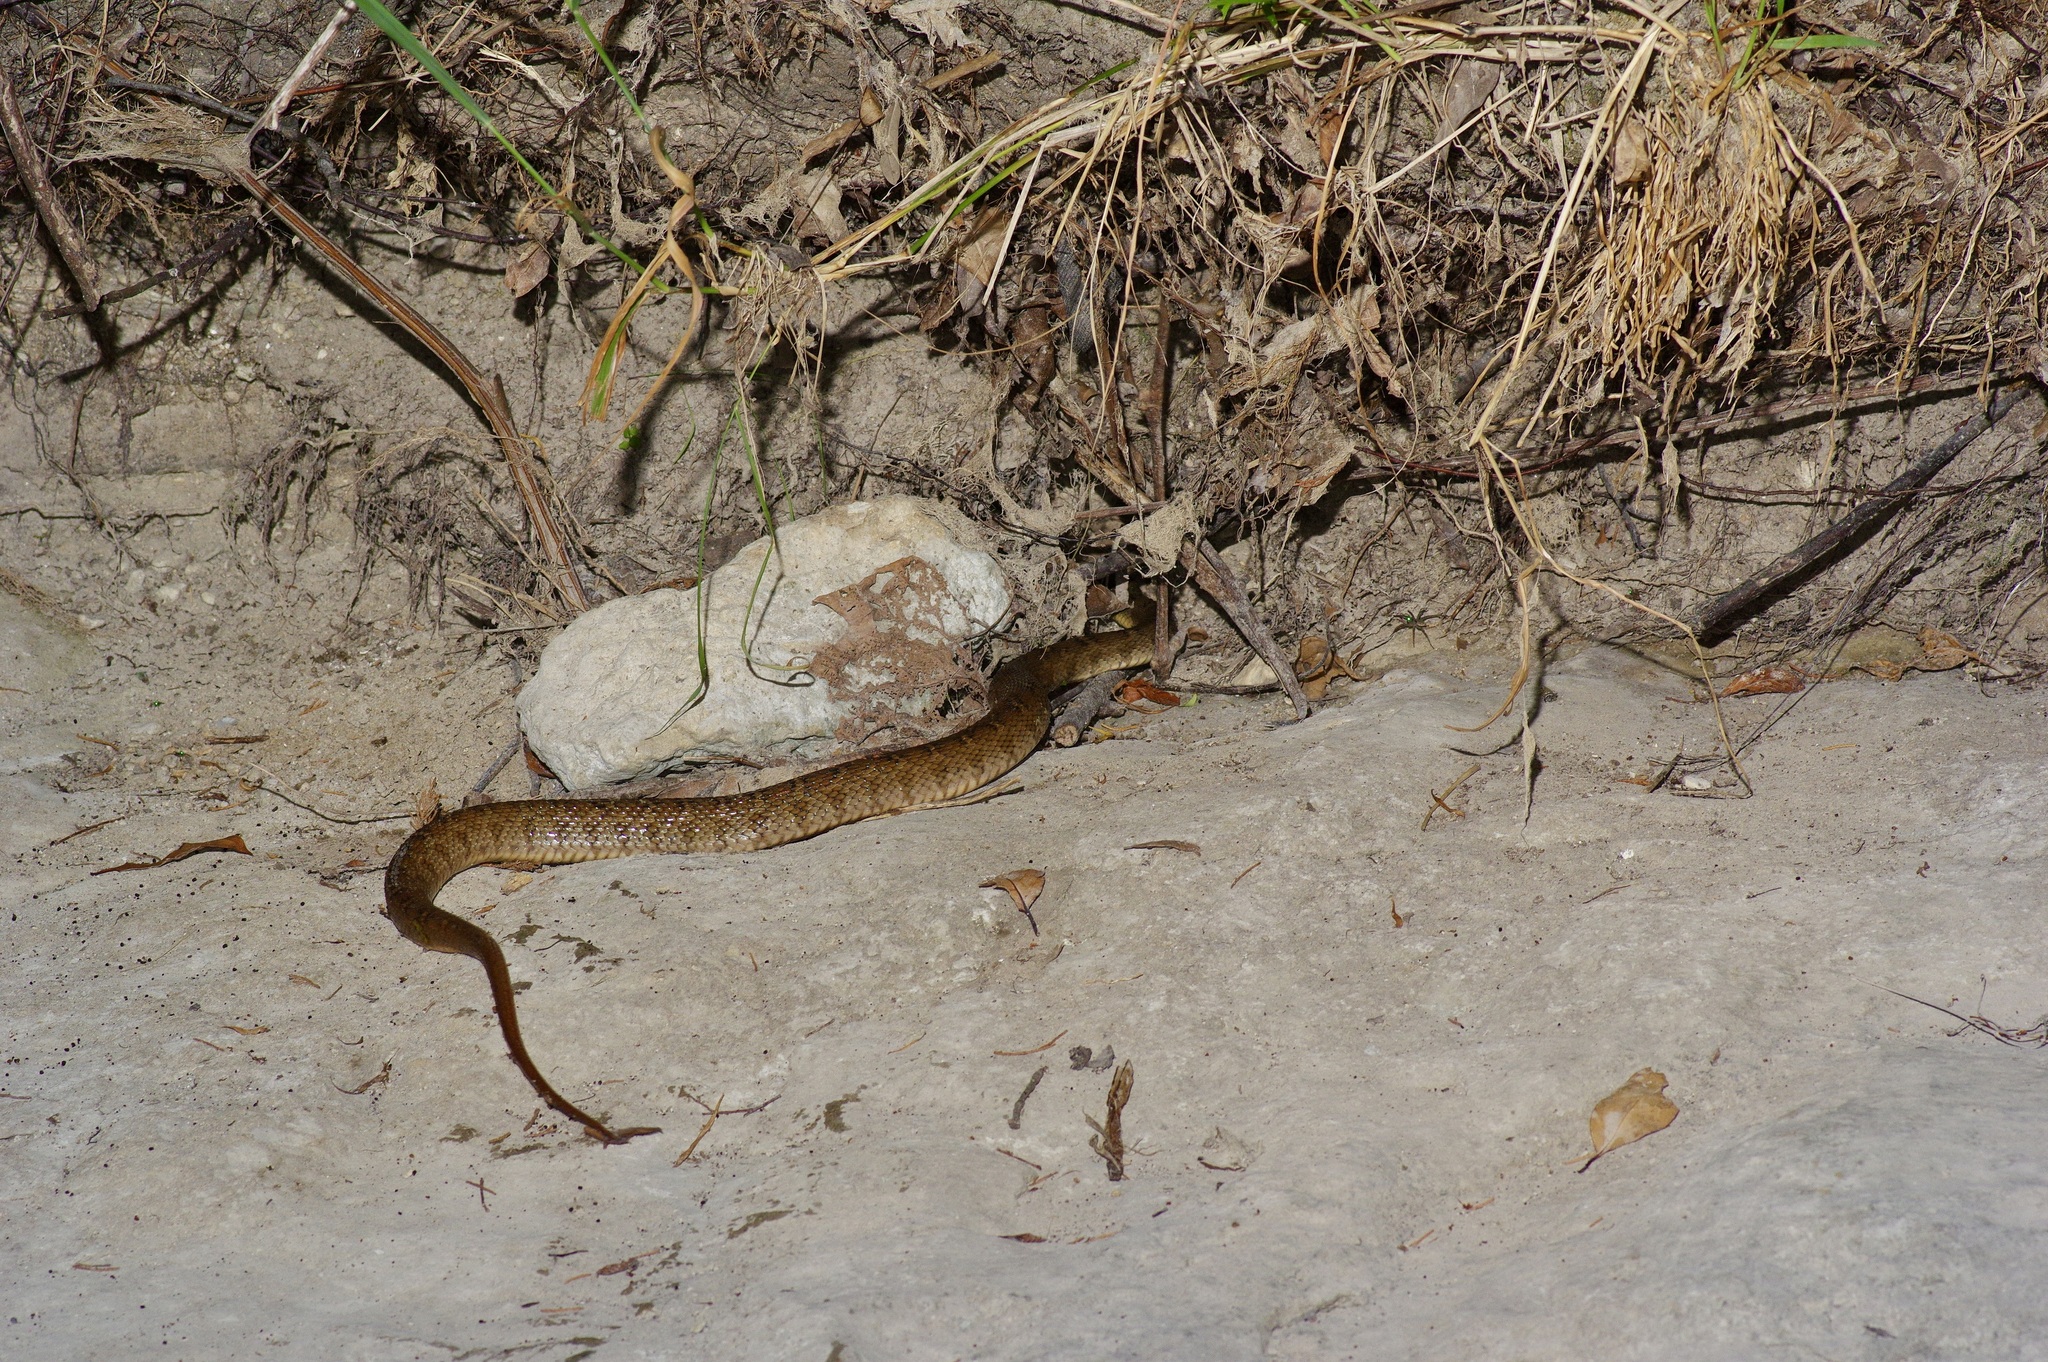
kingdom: Animalia
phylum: Chordata
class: Squamata
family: Colubridae
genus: Nerodia
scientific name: Nerodia erythrogaster
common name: Plainbelly water snake
